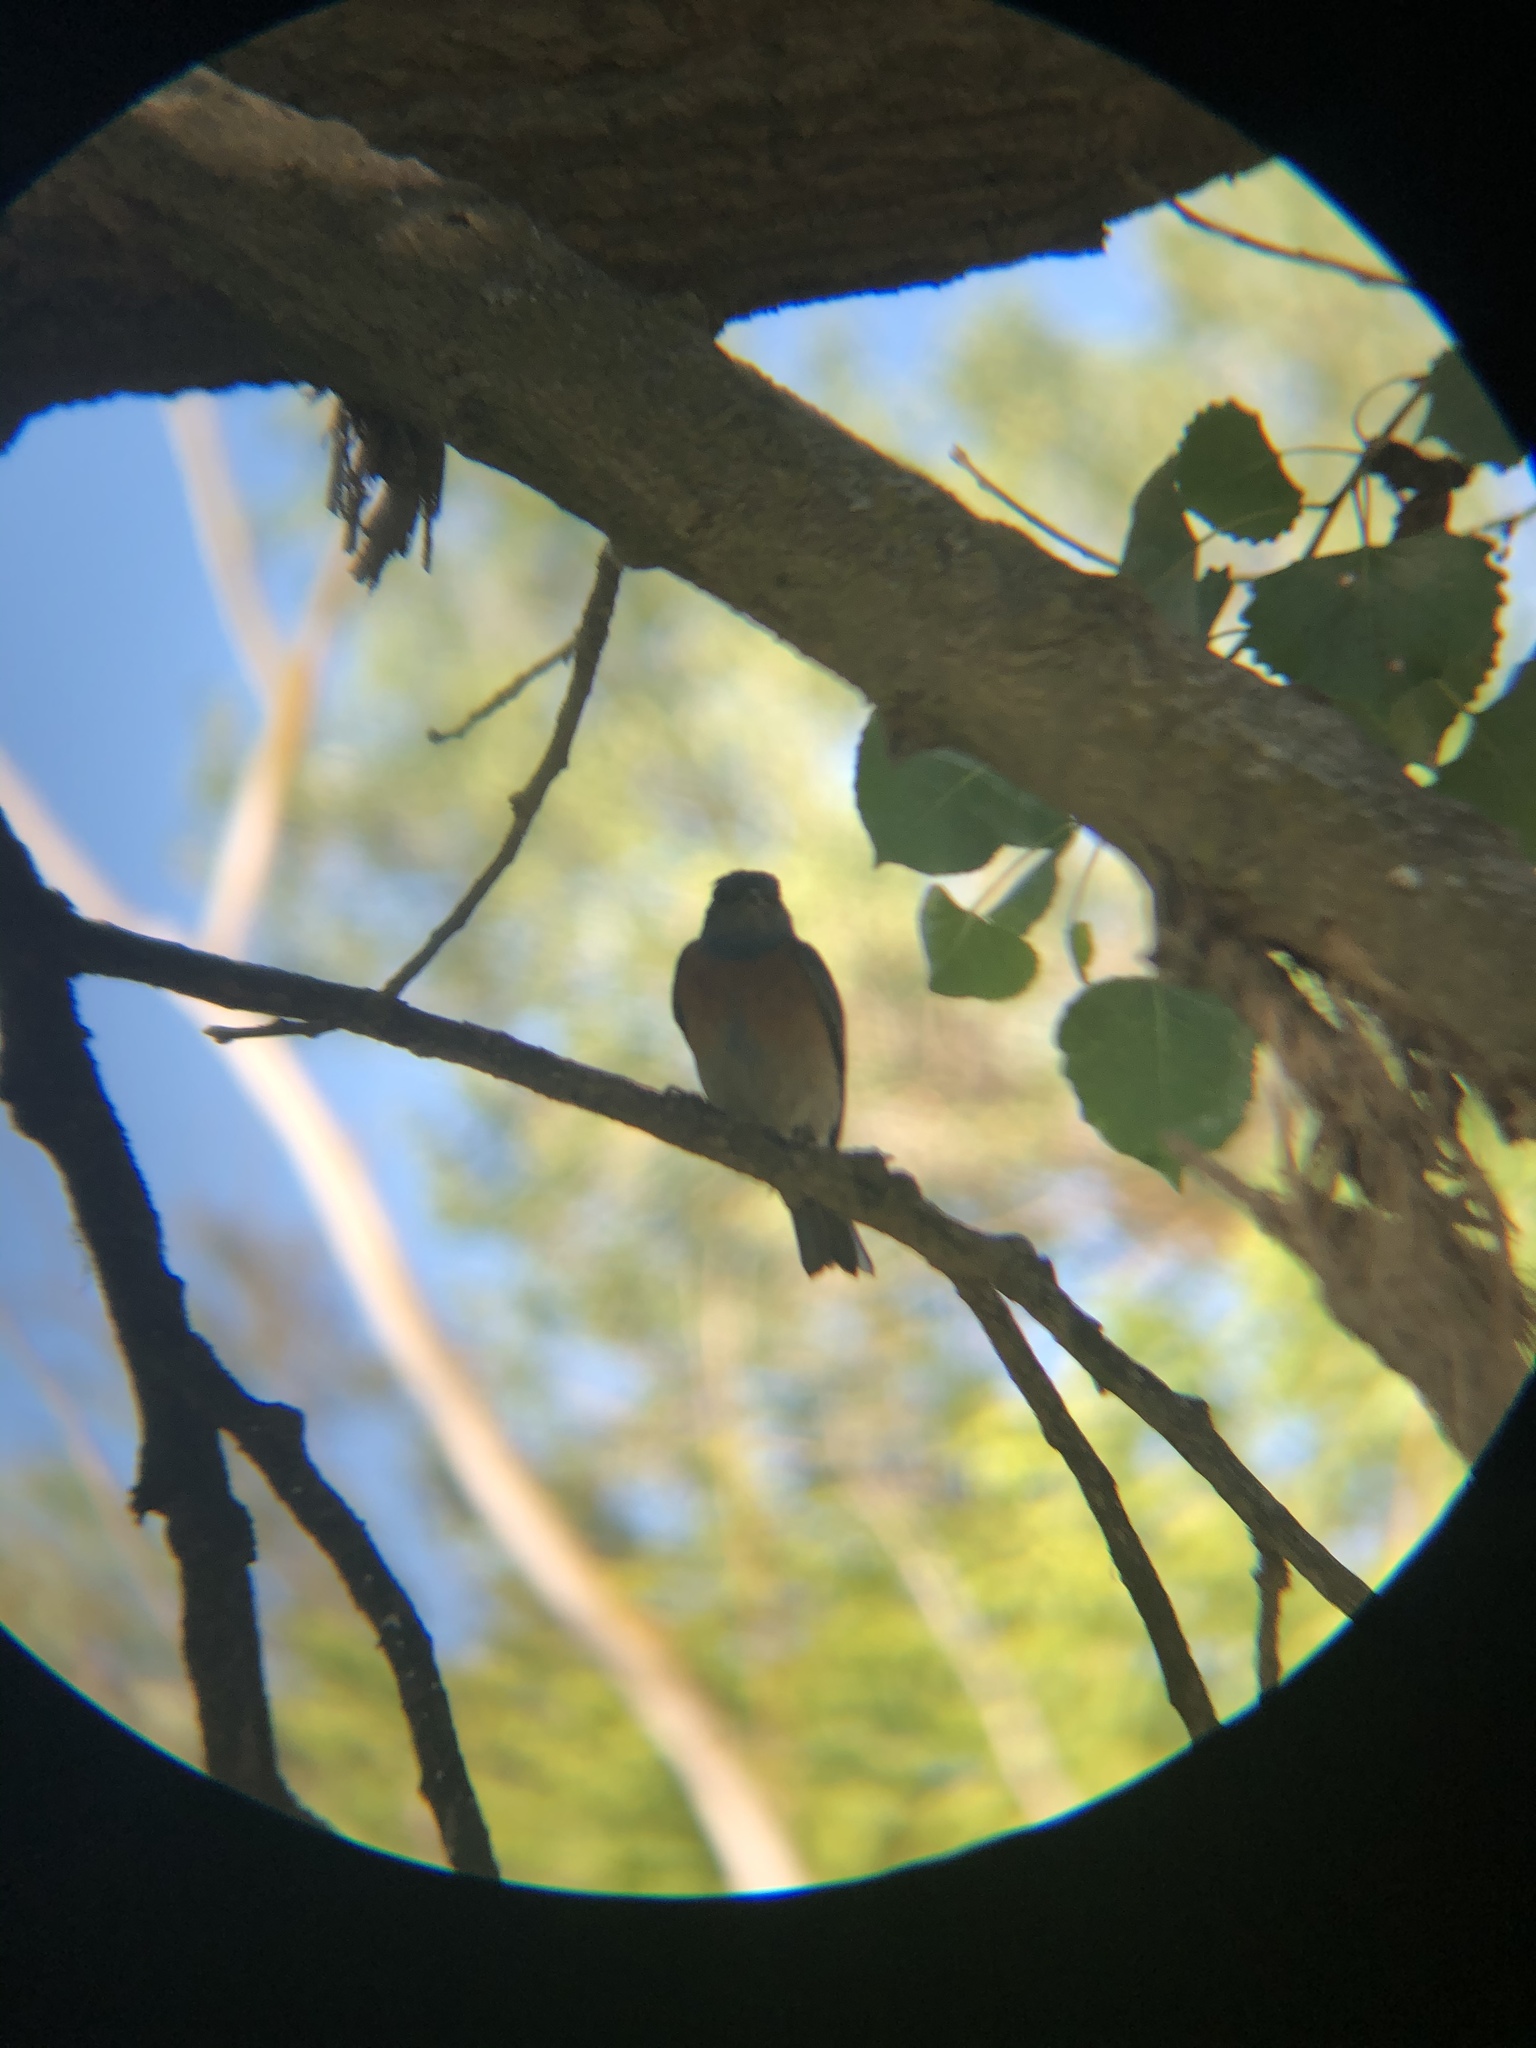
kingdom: Animalia
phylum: Chordata
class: Aves
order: Passeriformes
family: Turdidae
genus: Sialia
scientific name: Sialia mexicana
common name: Western bluebird
